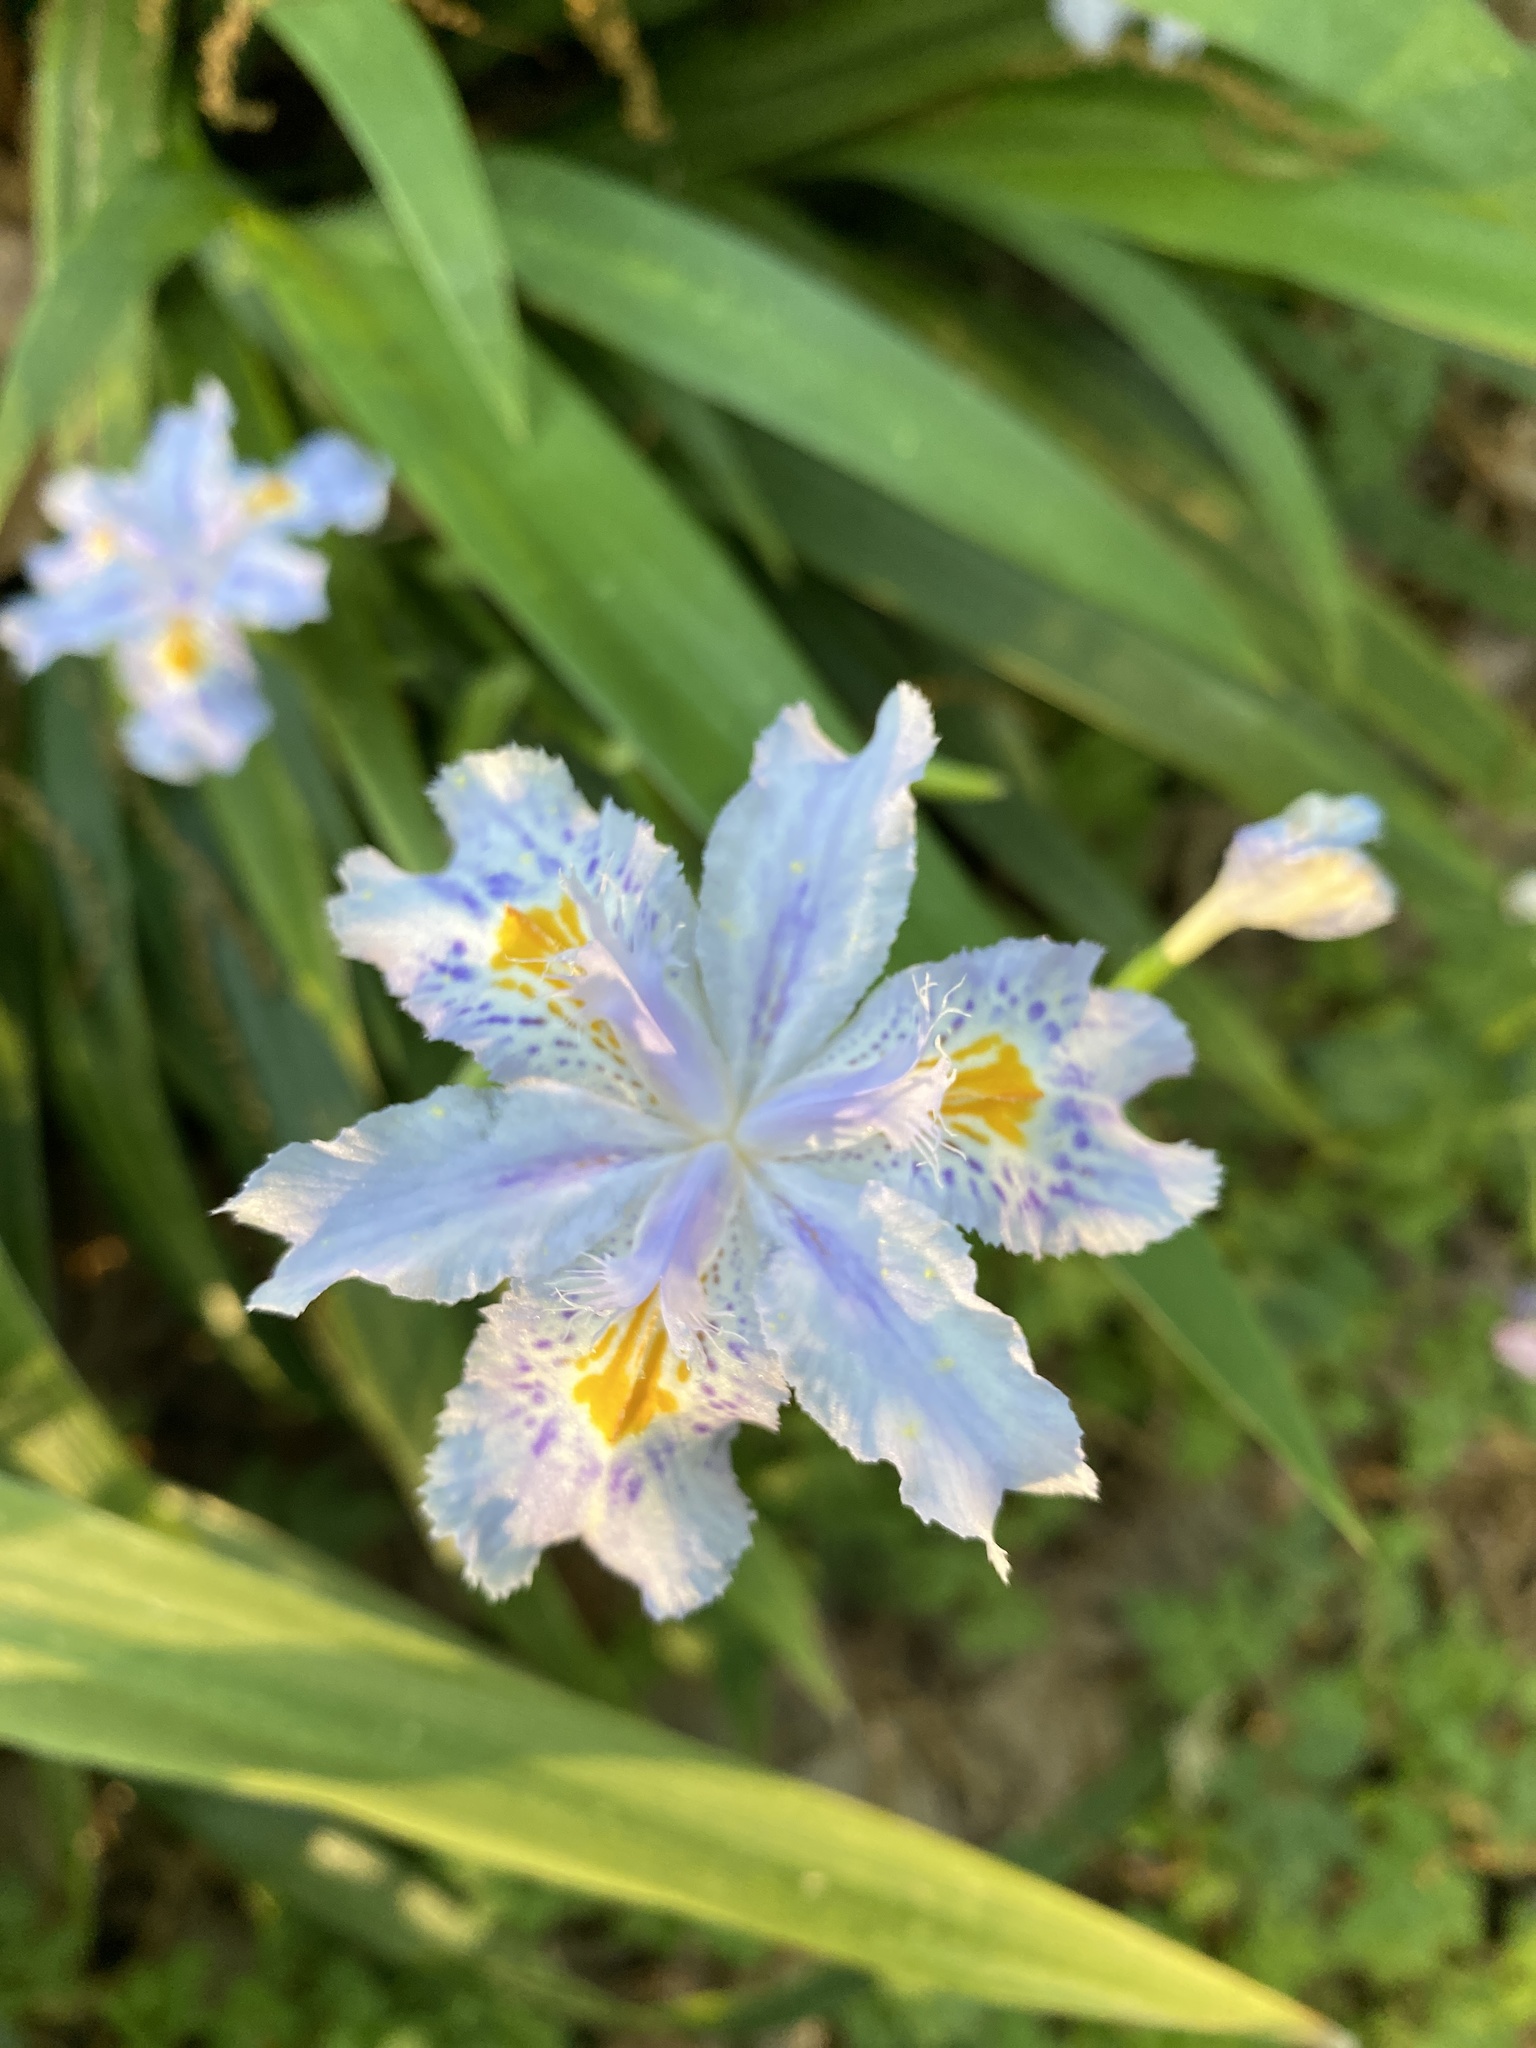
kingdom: Plantae
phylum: Tracheophyta
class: Liliopsida
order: Asparagales
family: Iridaceae
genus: Iris
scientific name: Iris japonica
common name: Butterfly-flower
